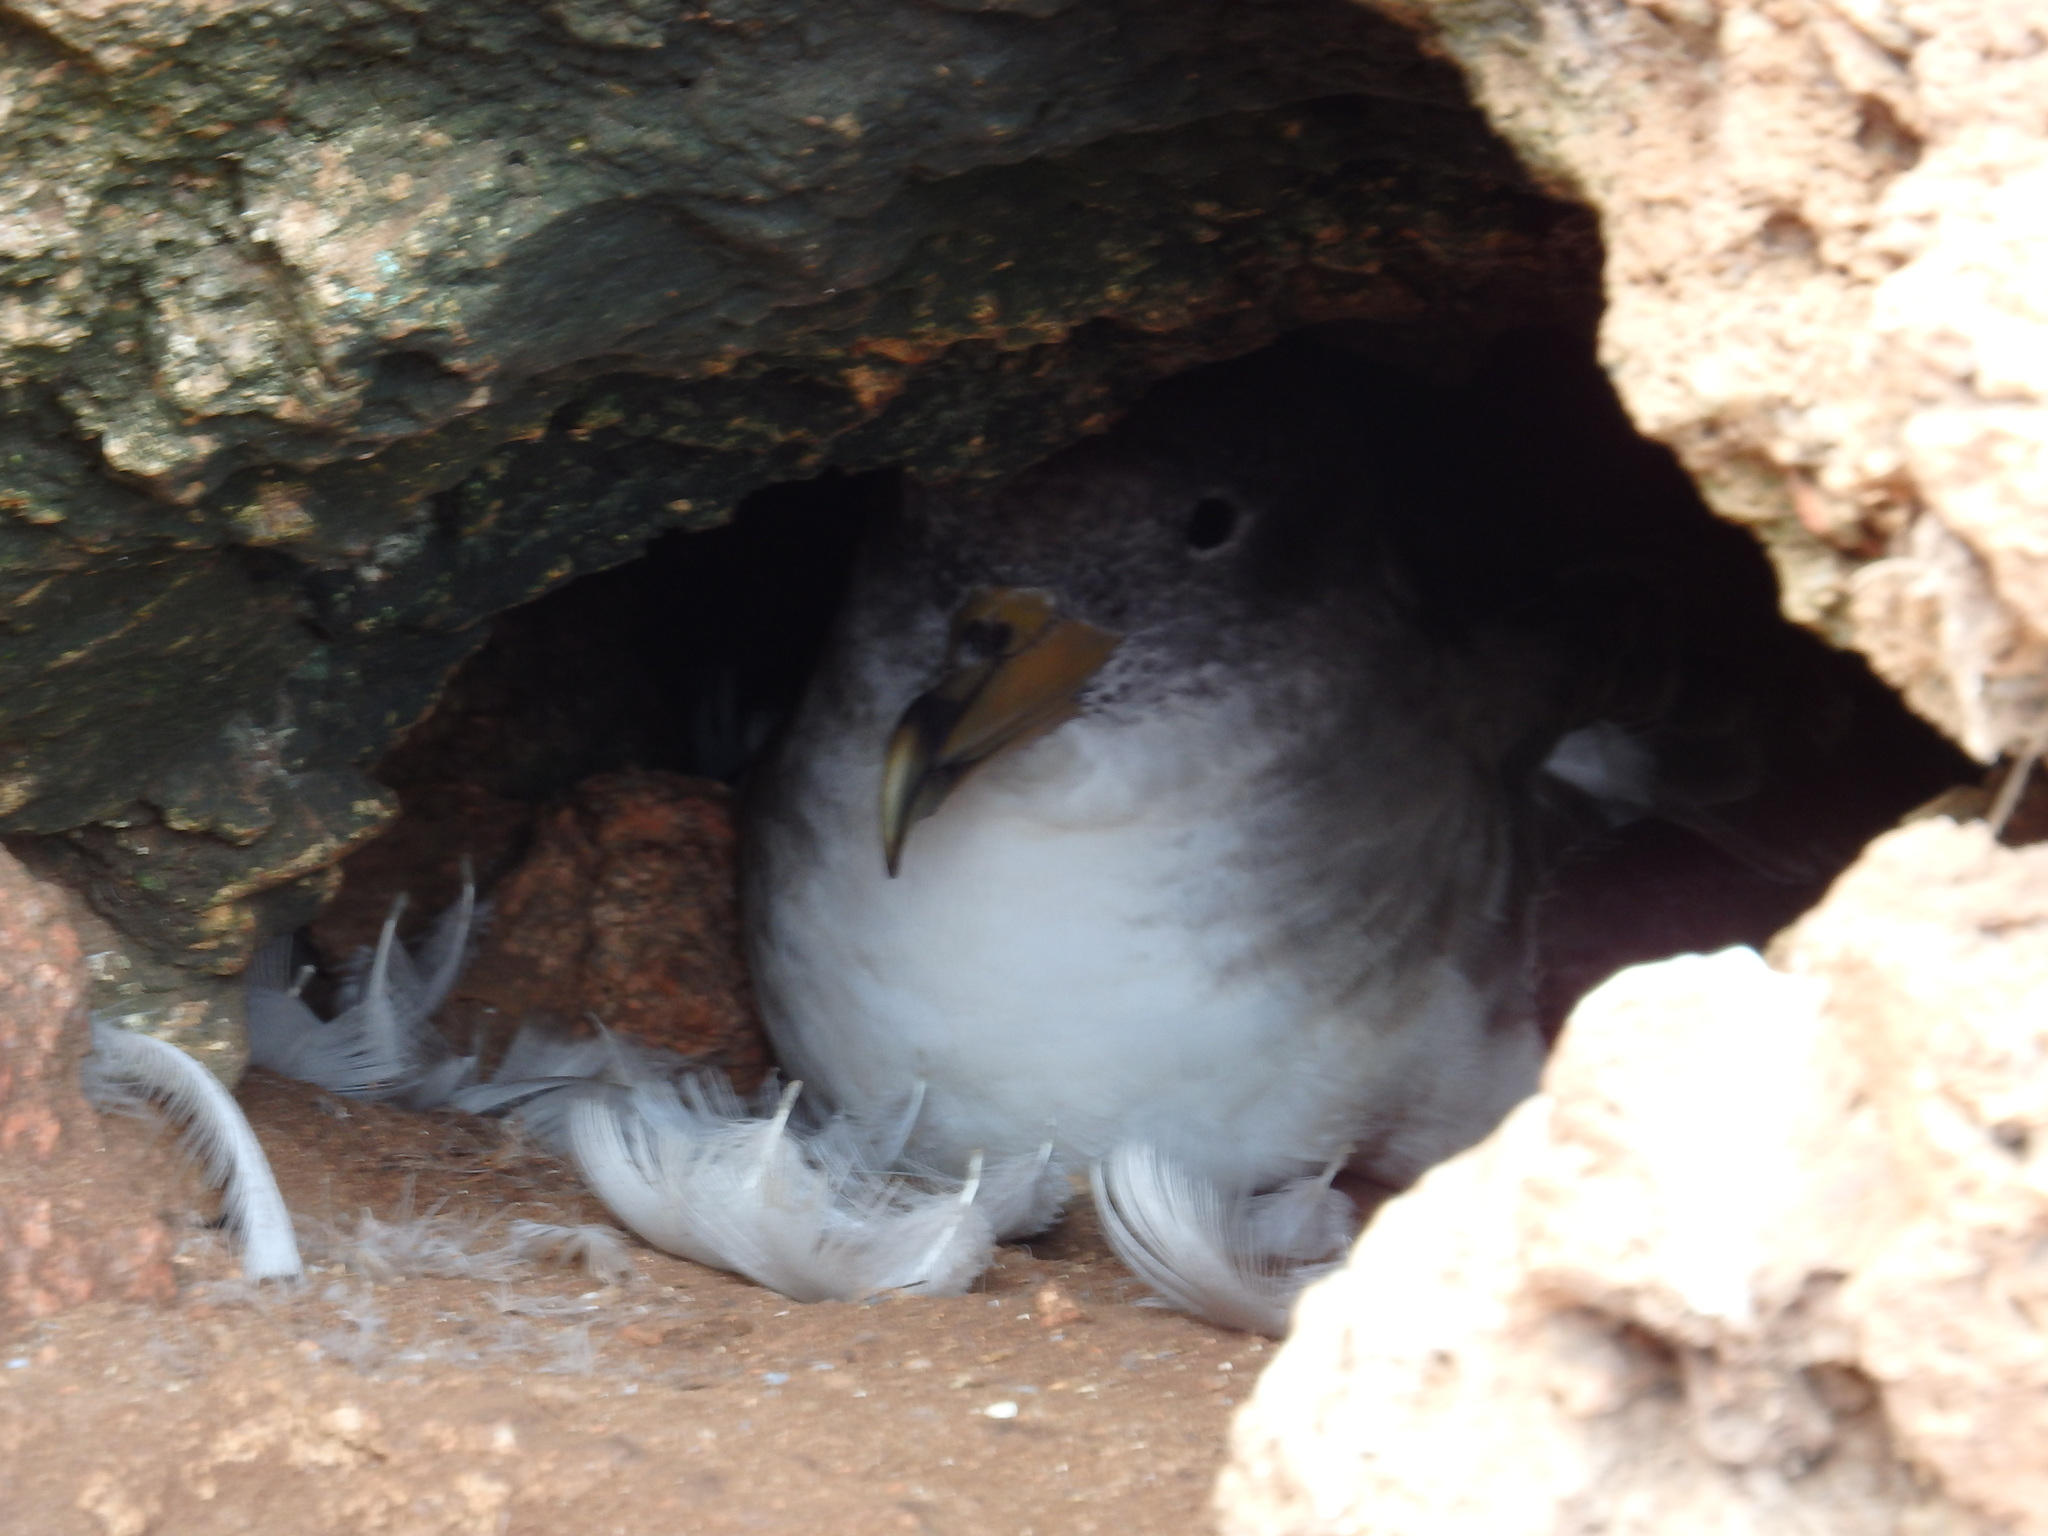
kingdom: Animalia
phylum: Chordata
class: Aves
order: Procellariiformes
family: Procellariidae
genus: Calonectris
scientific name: Calonectris diomedea
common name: Cory's shearwater
